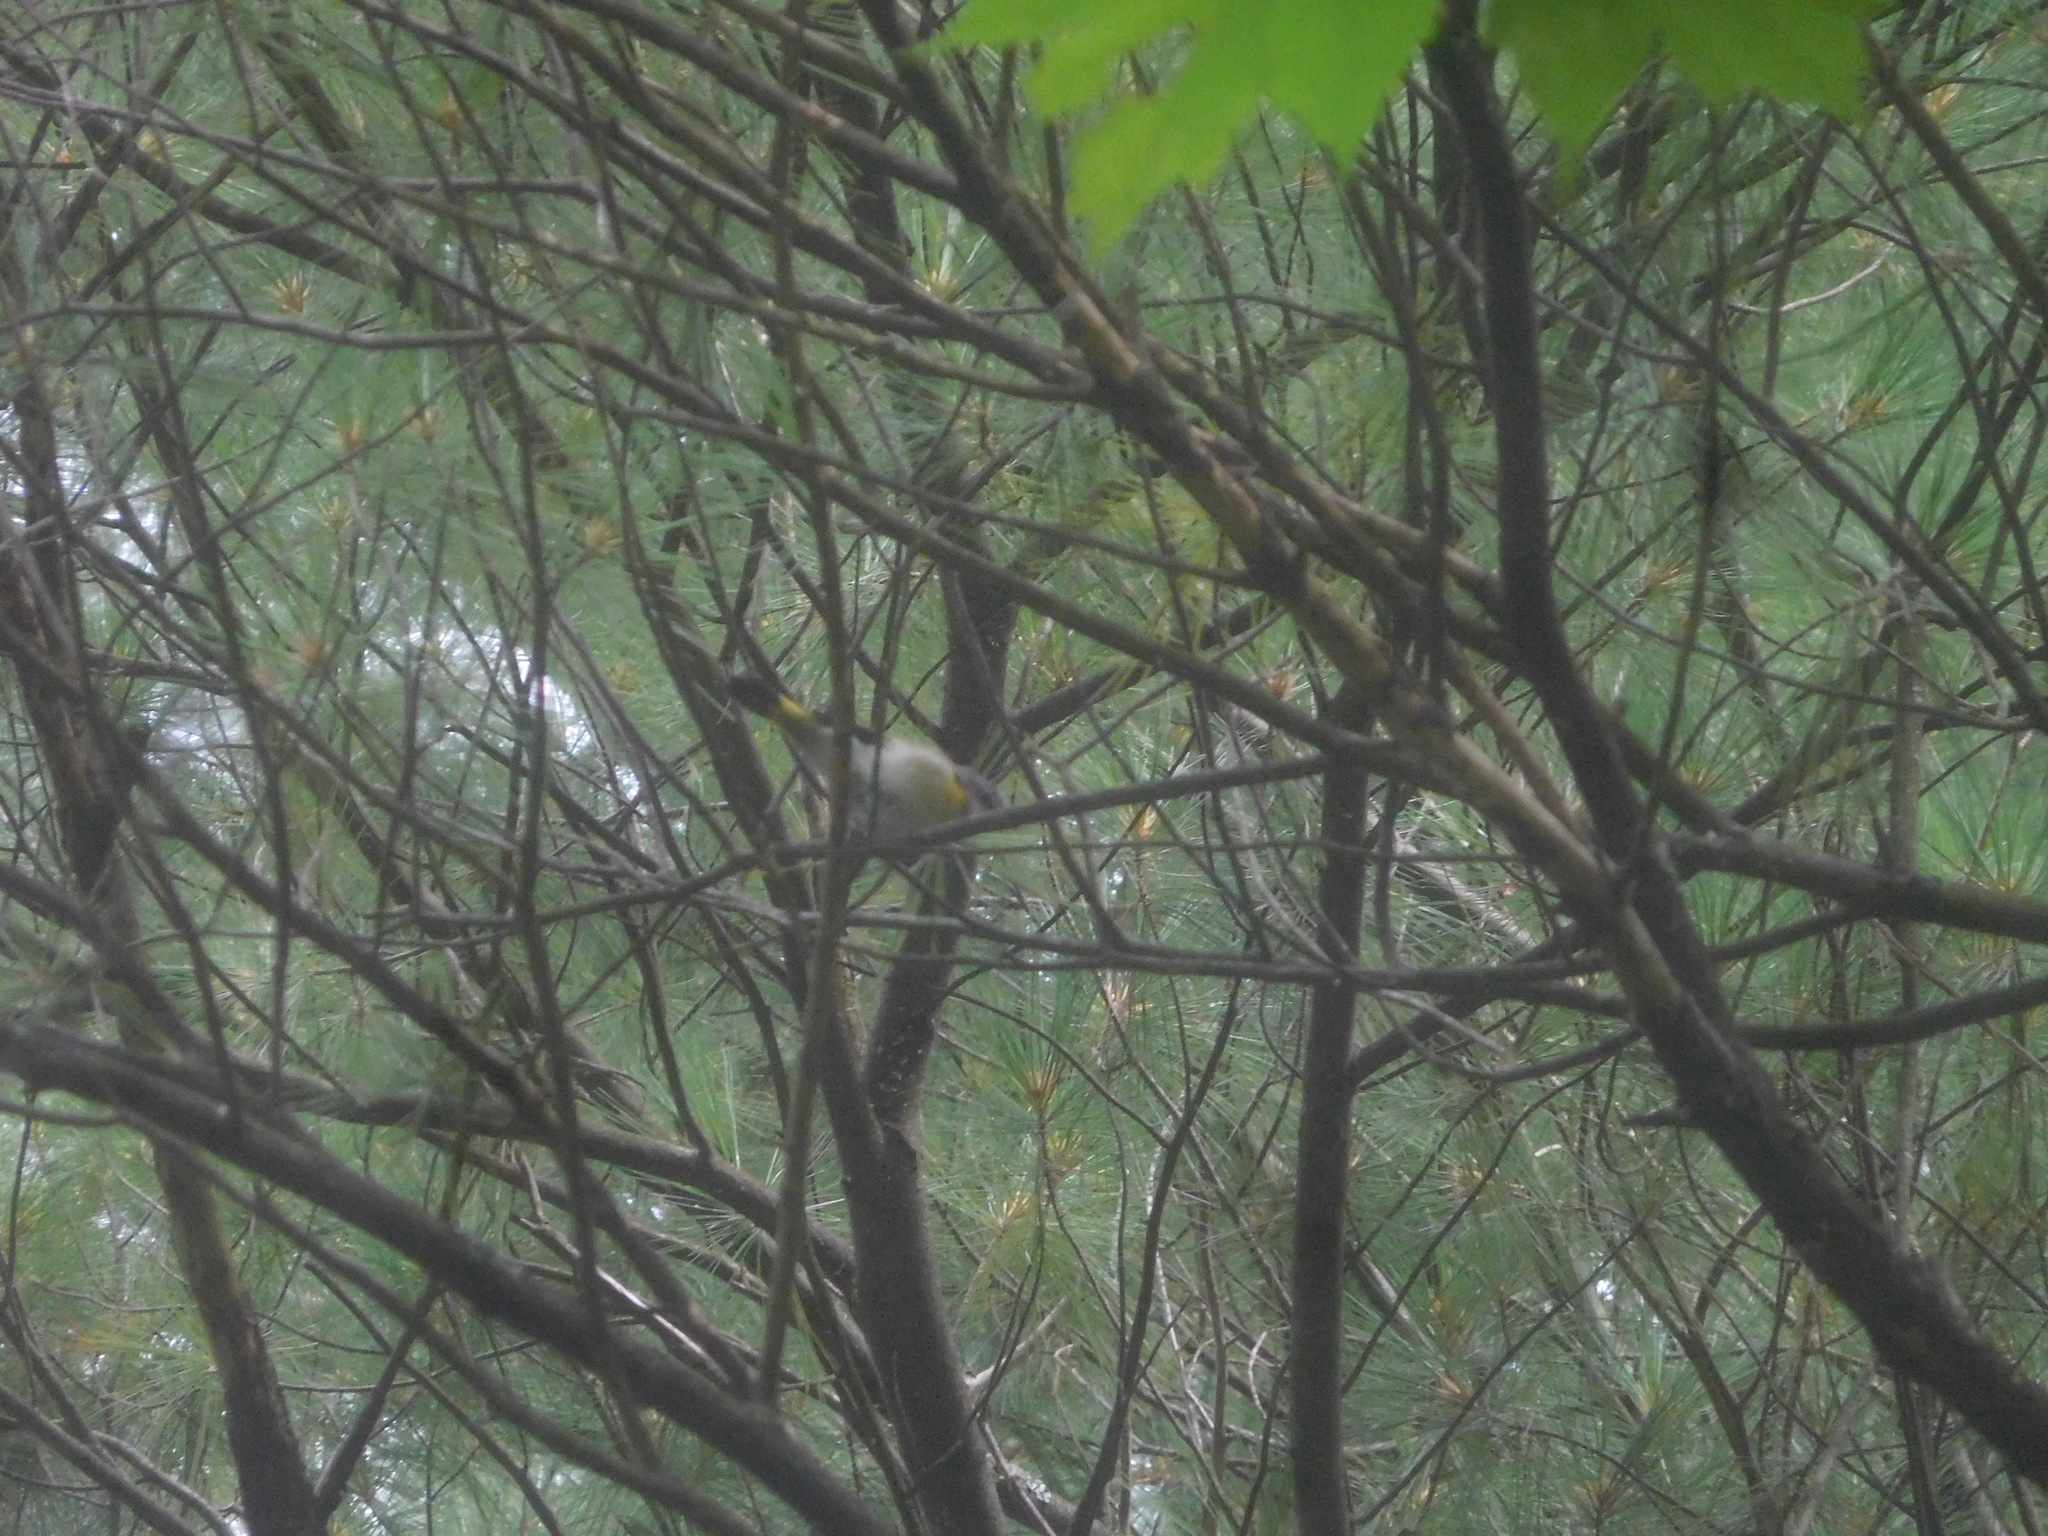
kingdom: Animalia
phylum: Chordata
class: Aves
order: Passeriformes
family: Parulidae
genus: Setophaga
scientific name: Setophaga ruticilla
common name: American redstart
